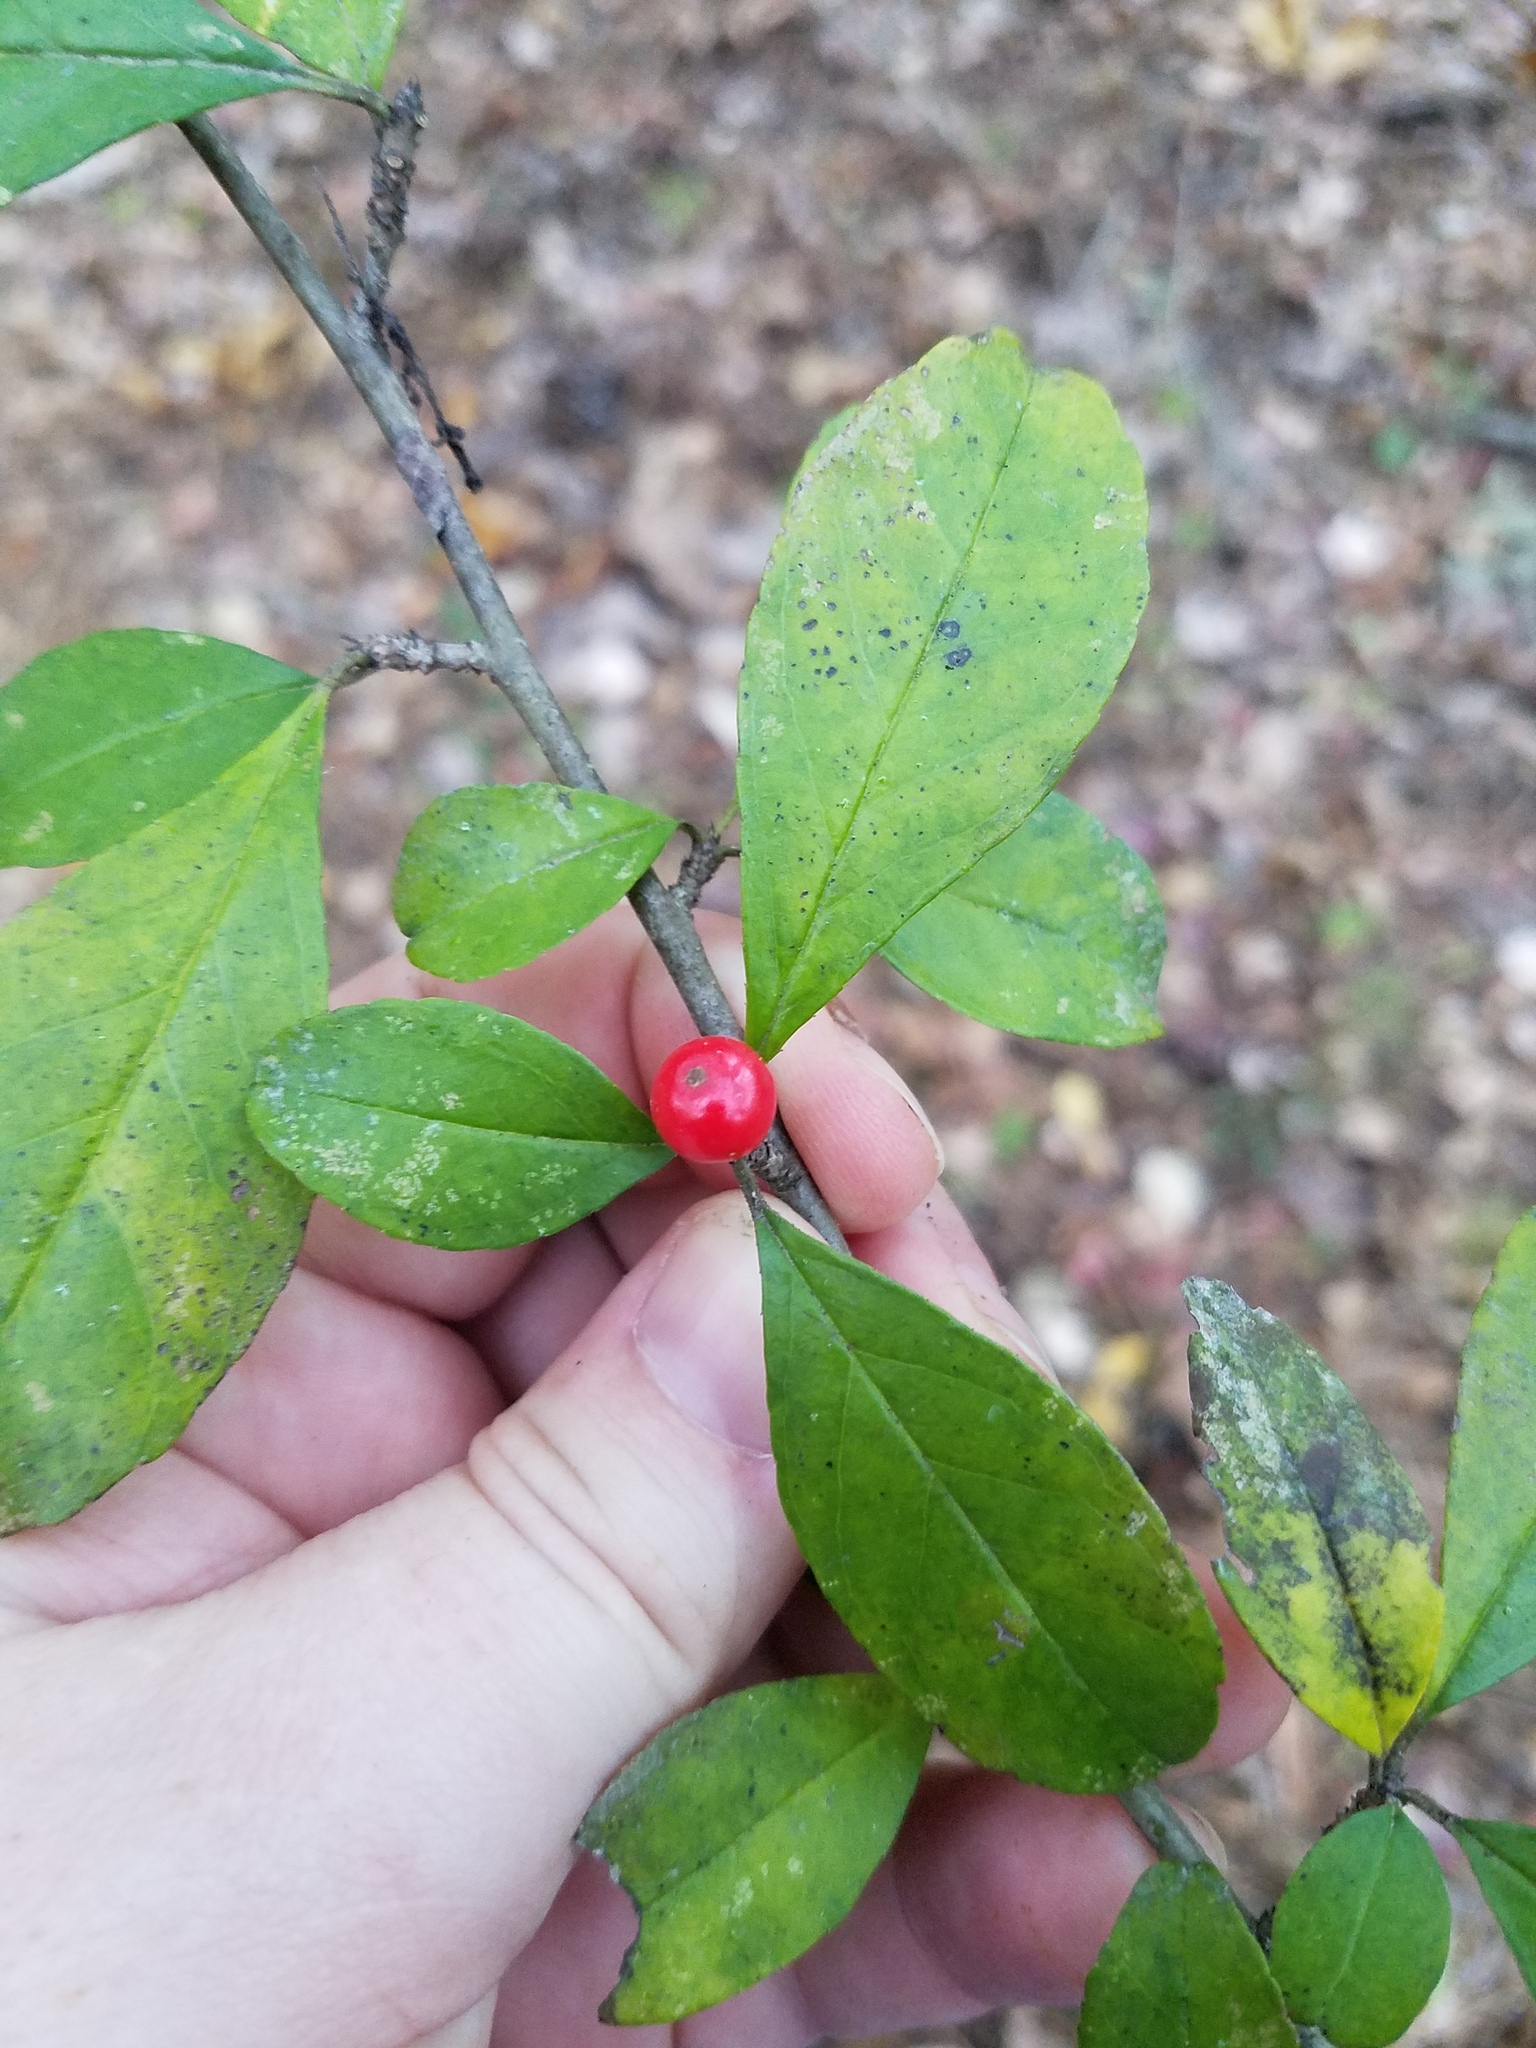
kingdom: Plantae
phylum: Tracheophyta
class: Magnoliopsida
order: Aquifoliales
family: Aquifoliaceae
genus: Ilex
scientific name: Ilex decidua
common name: Possum-haw
